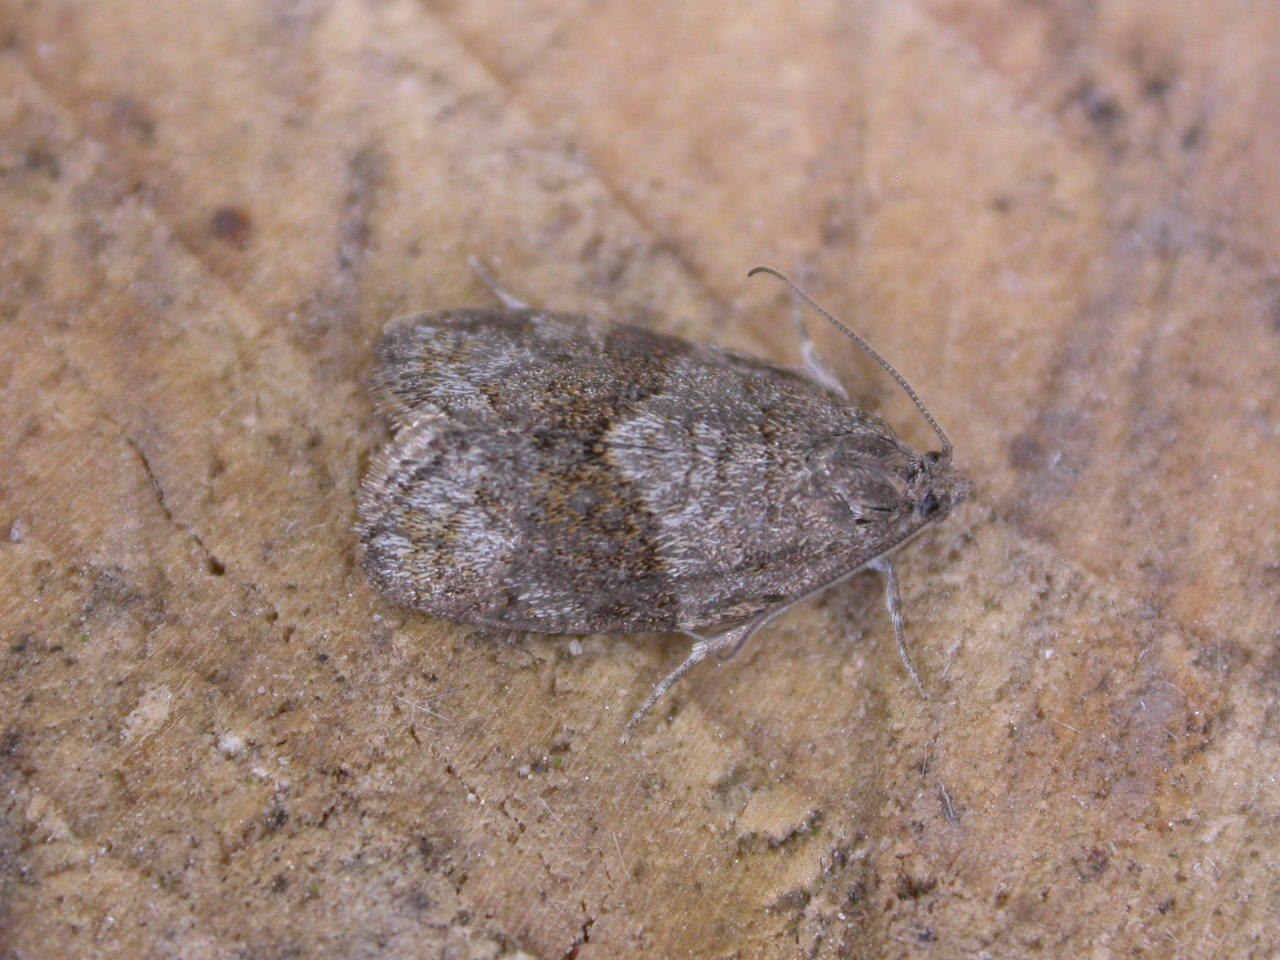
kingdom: Animalia
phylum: Arthropoda
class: Insecta
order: Lepidoptera
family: Tortricidae
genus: Syndemis
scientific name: Syndemis musculana
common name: Dark-barred twist
